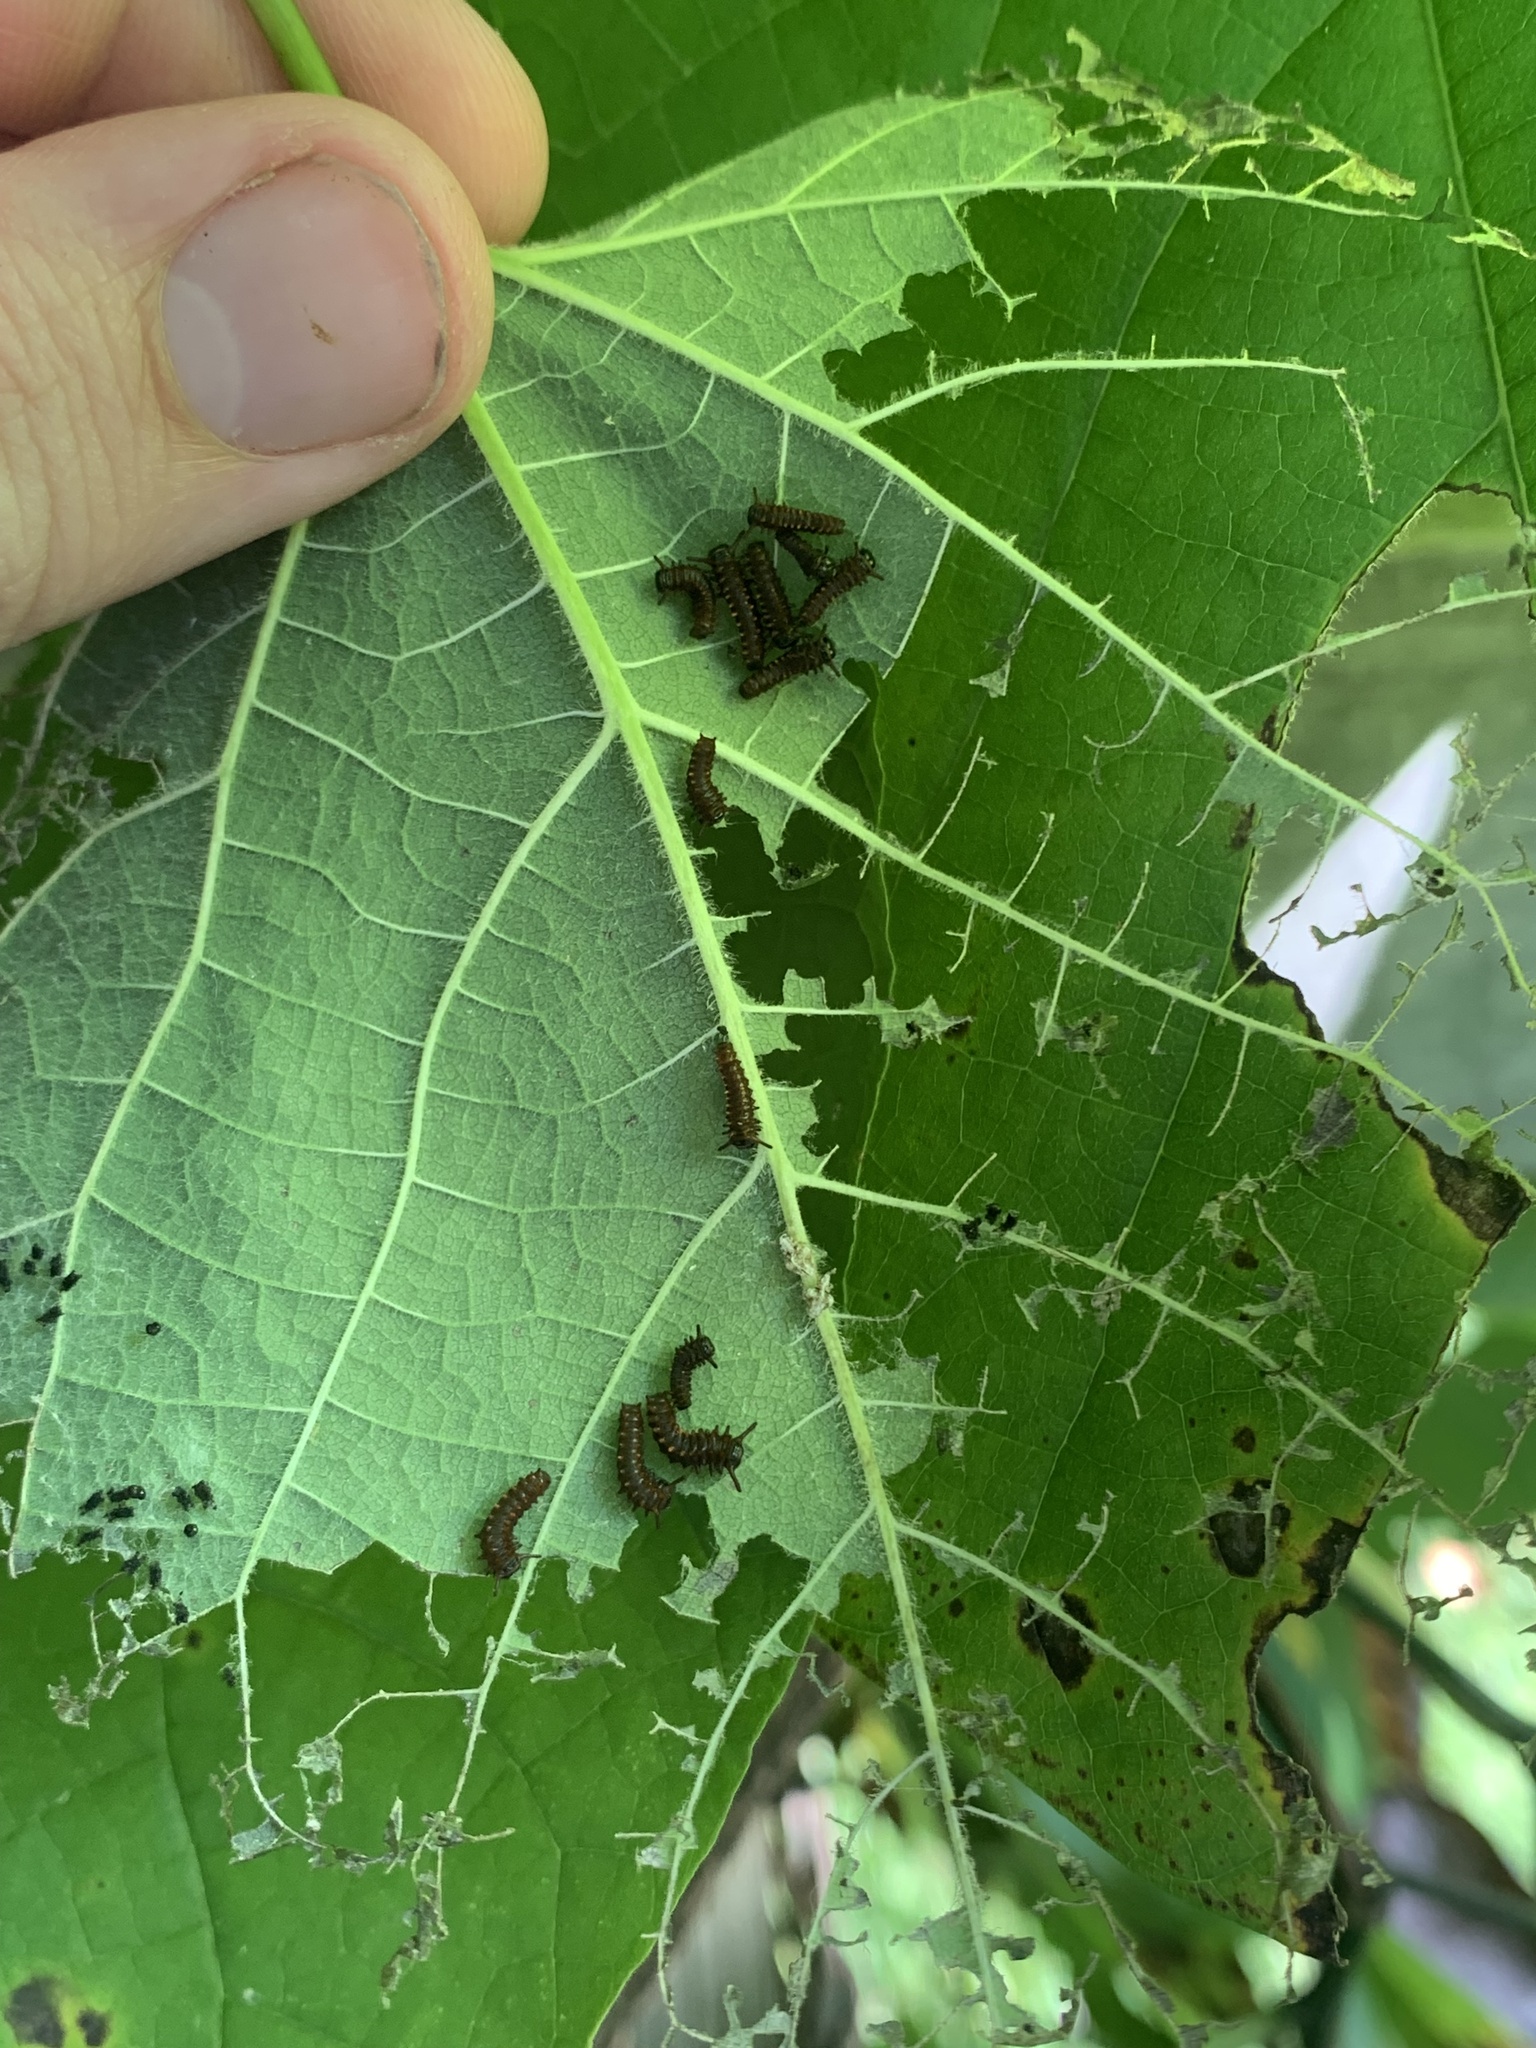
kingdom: Animalia
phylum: Arthropoda
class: Insecta
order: Lepidoptera
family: Papilionidae
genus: Battus
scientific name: Battus philenor
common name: Pipevine swallowtail
